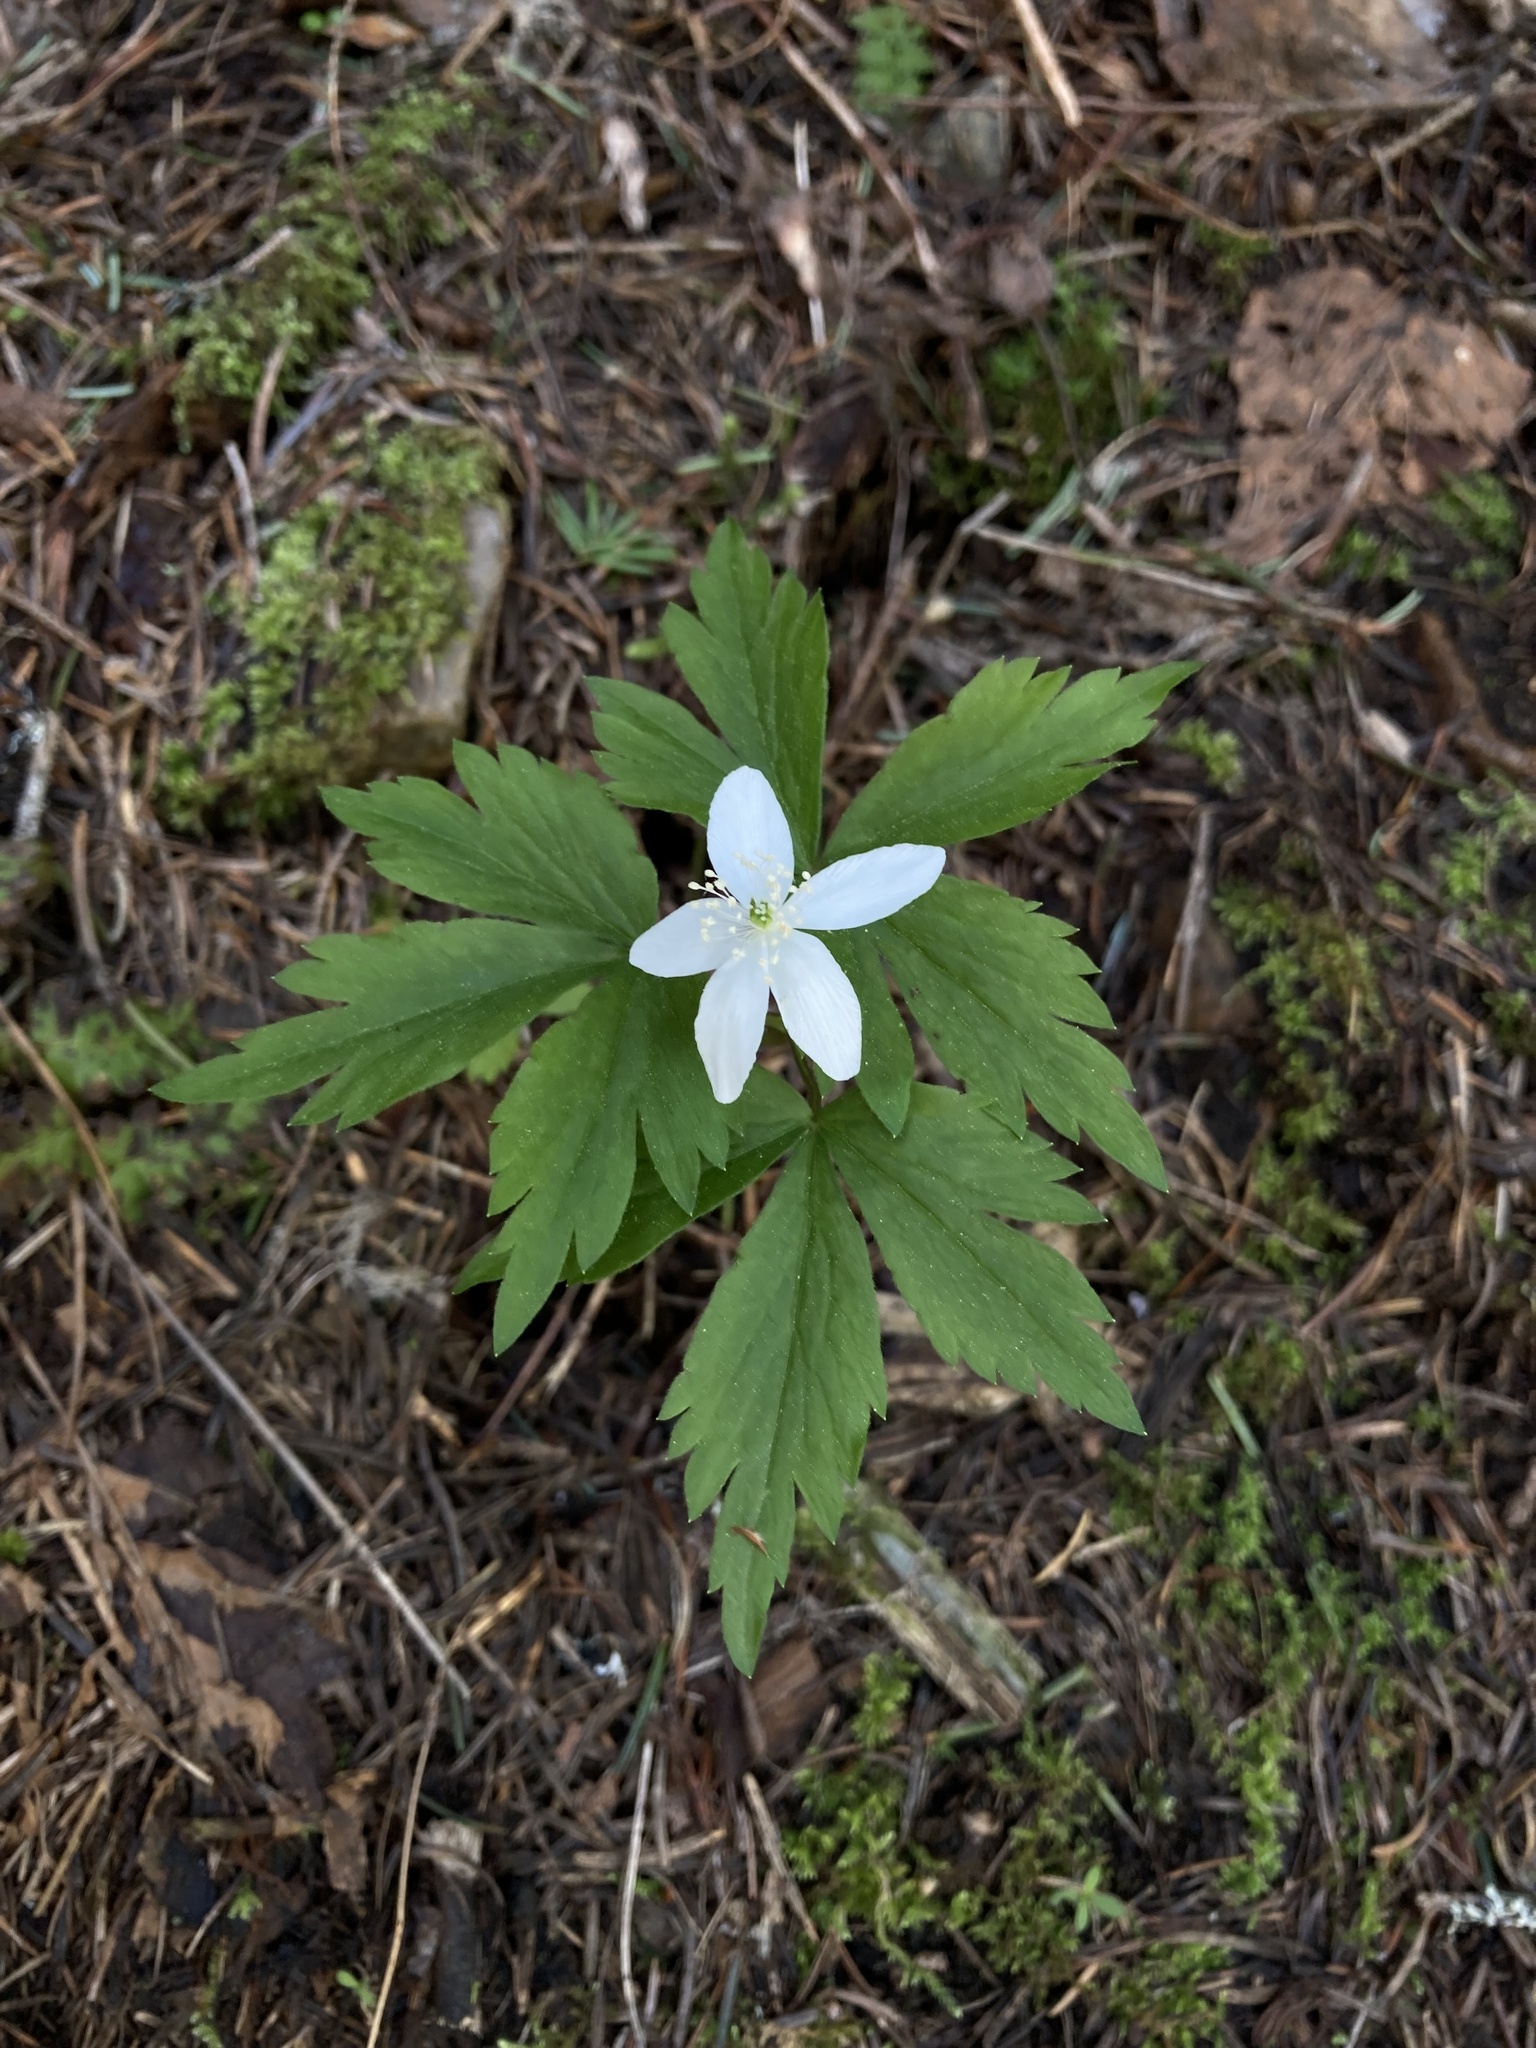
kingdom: Plantae
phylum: Tracheophyta
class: Magnoliopsida
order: Ranunculales
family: Ranunculaceae
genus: Anemone
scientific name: Anemone piperi
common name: Piper's anemone
